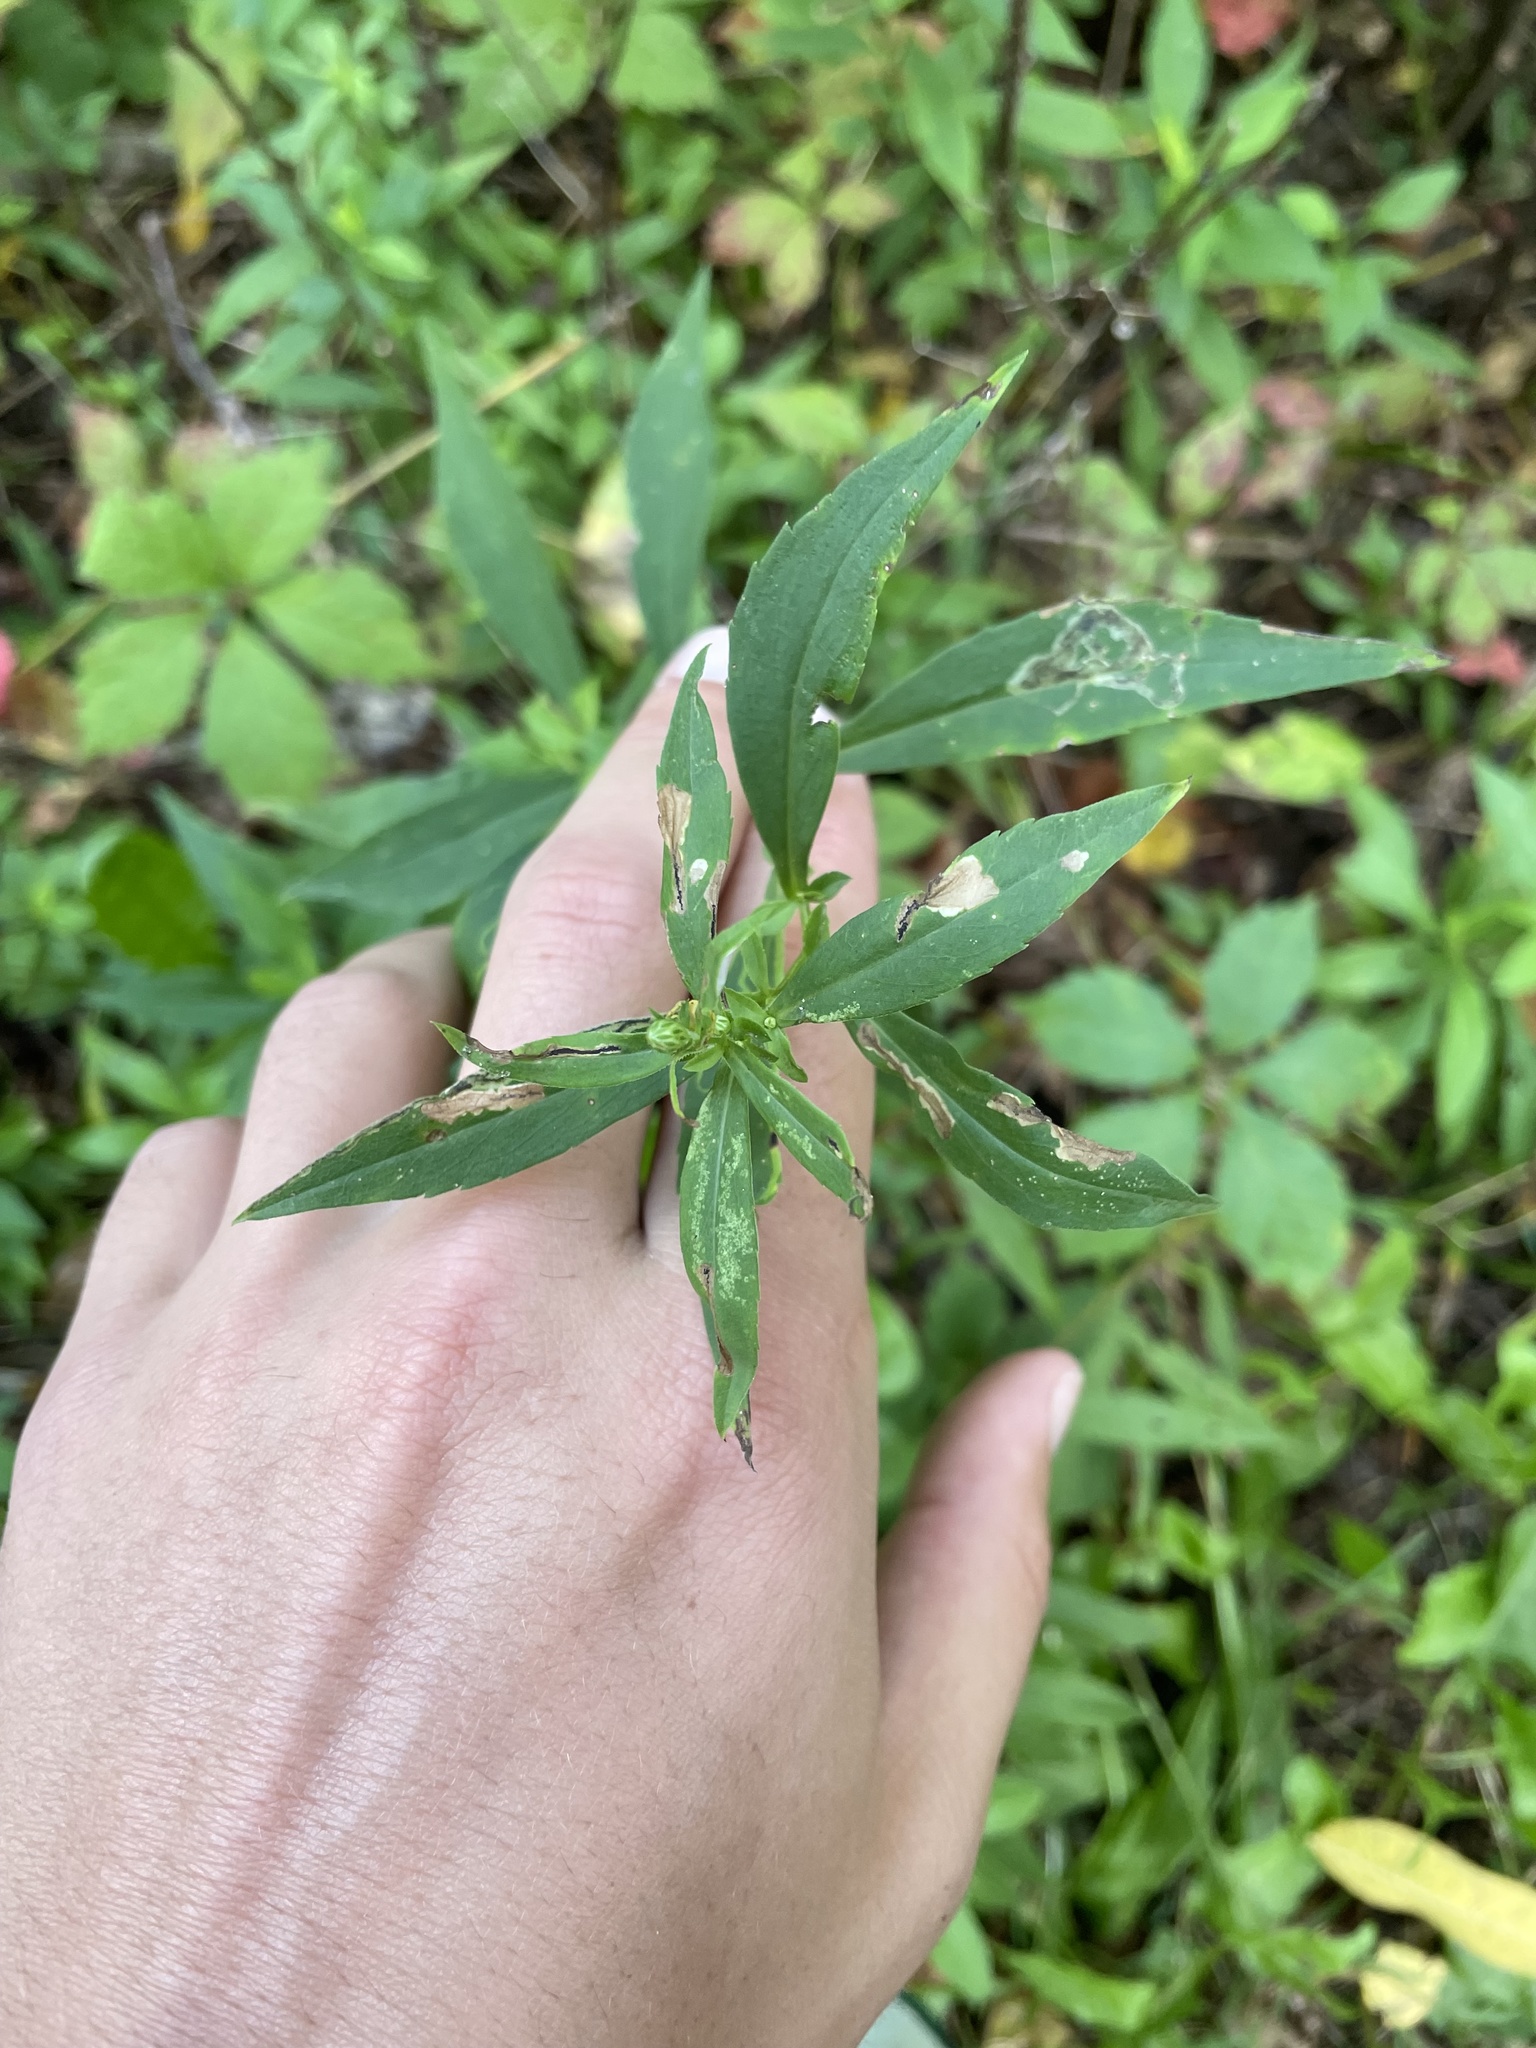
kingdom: Animalia
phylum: Arthropoda
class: Insecta
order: Diptera
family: Agromyzidae
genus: Ophiomyia
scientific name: Ophiomyia parda
